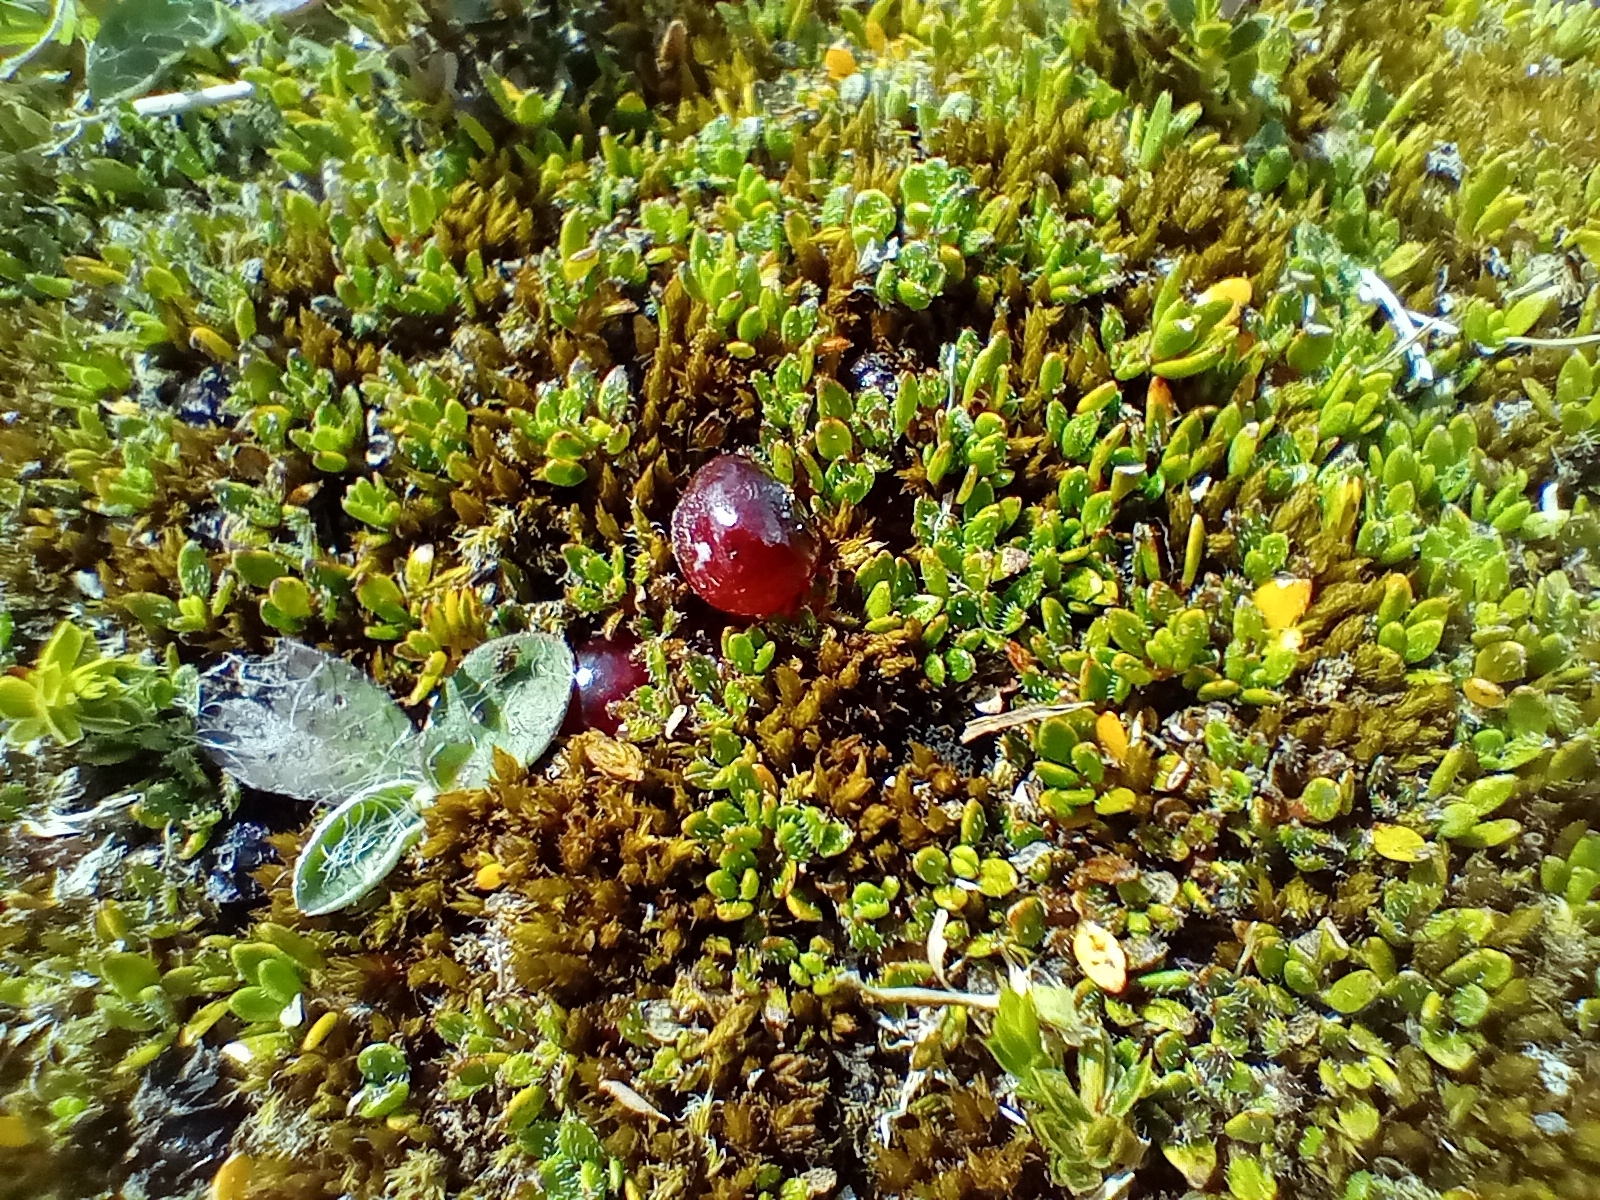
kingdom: Plantae
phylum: Tracheophyta
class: Magnoliopsida
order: Gentianales
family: Rubiaceae
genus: Coprosma
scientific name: Coprosma atropurpurea
